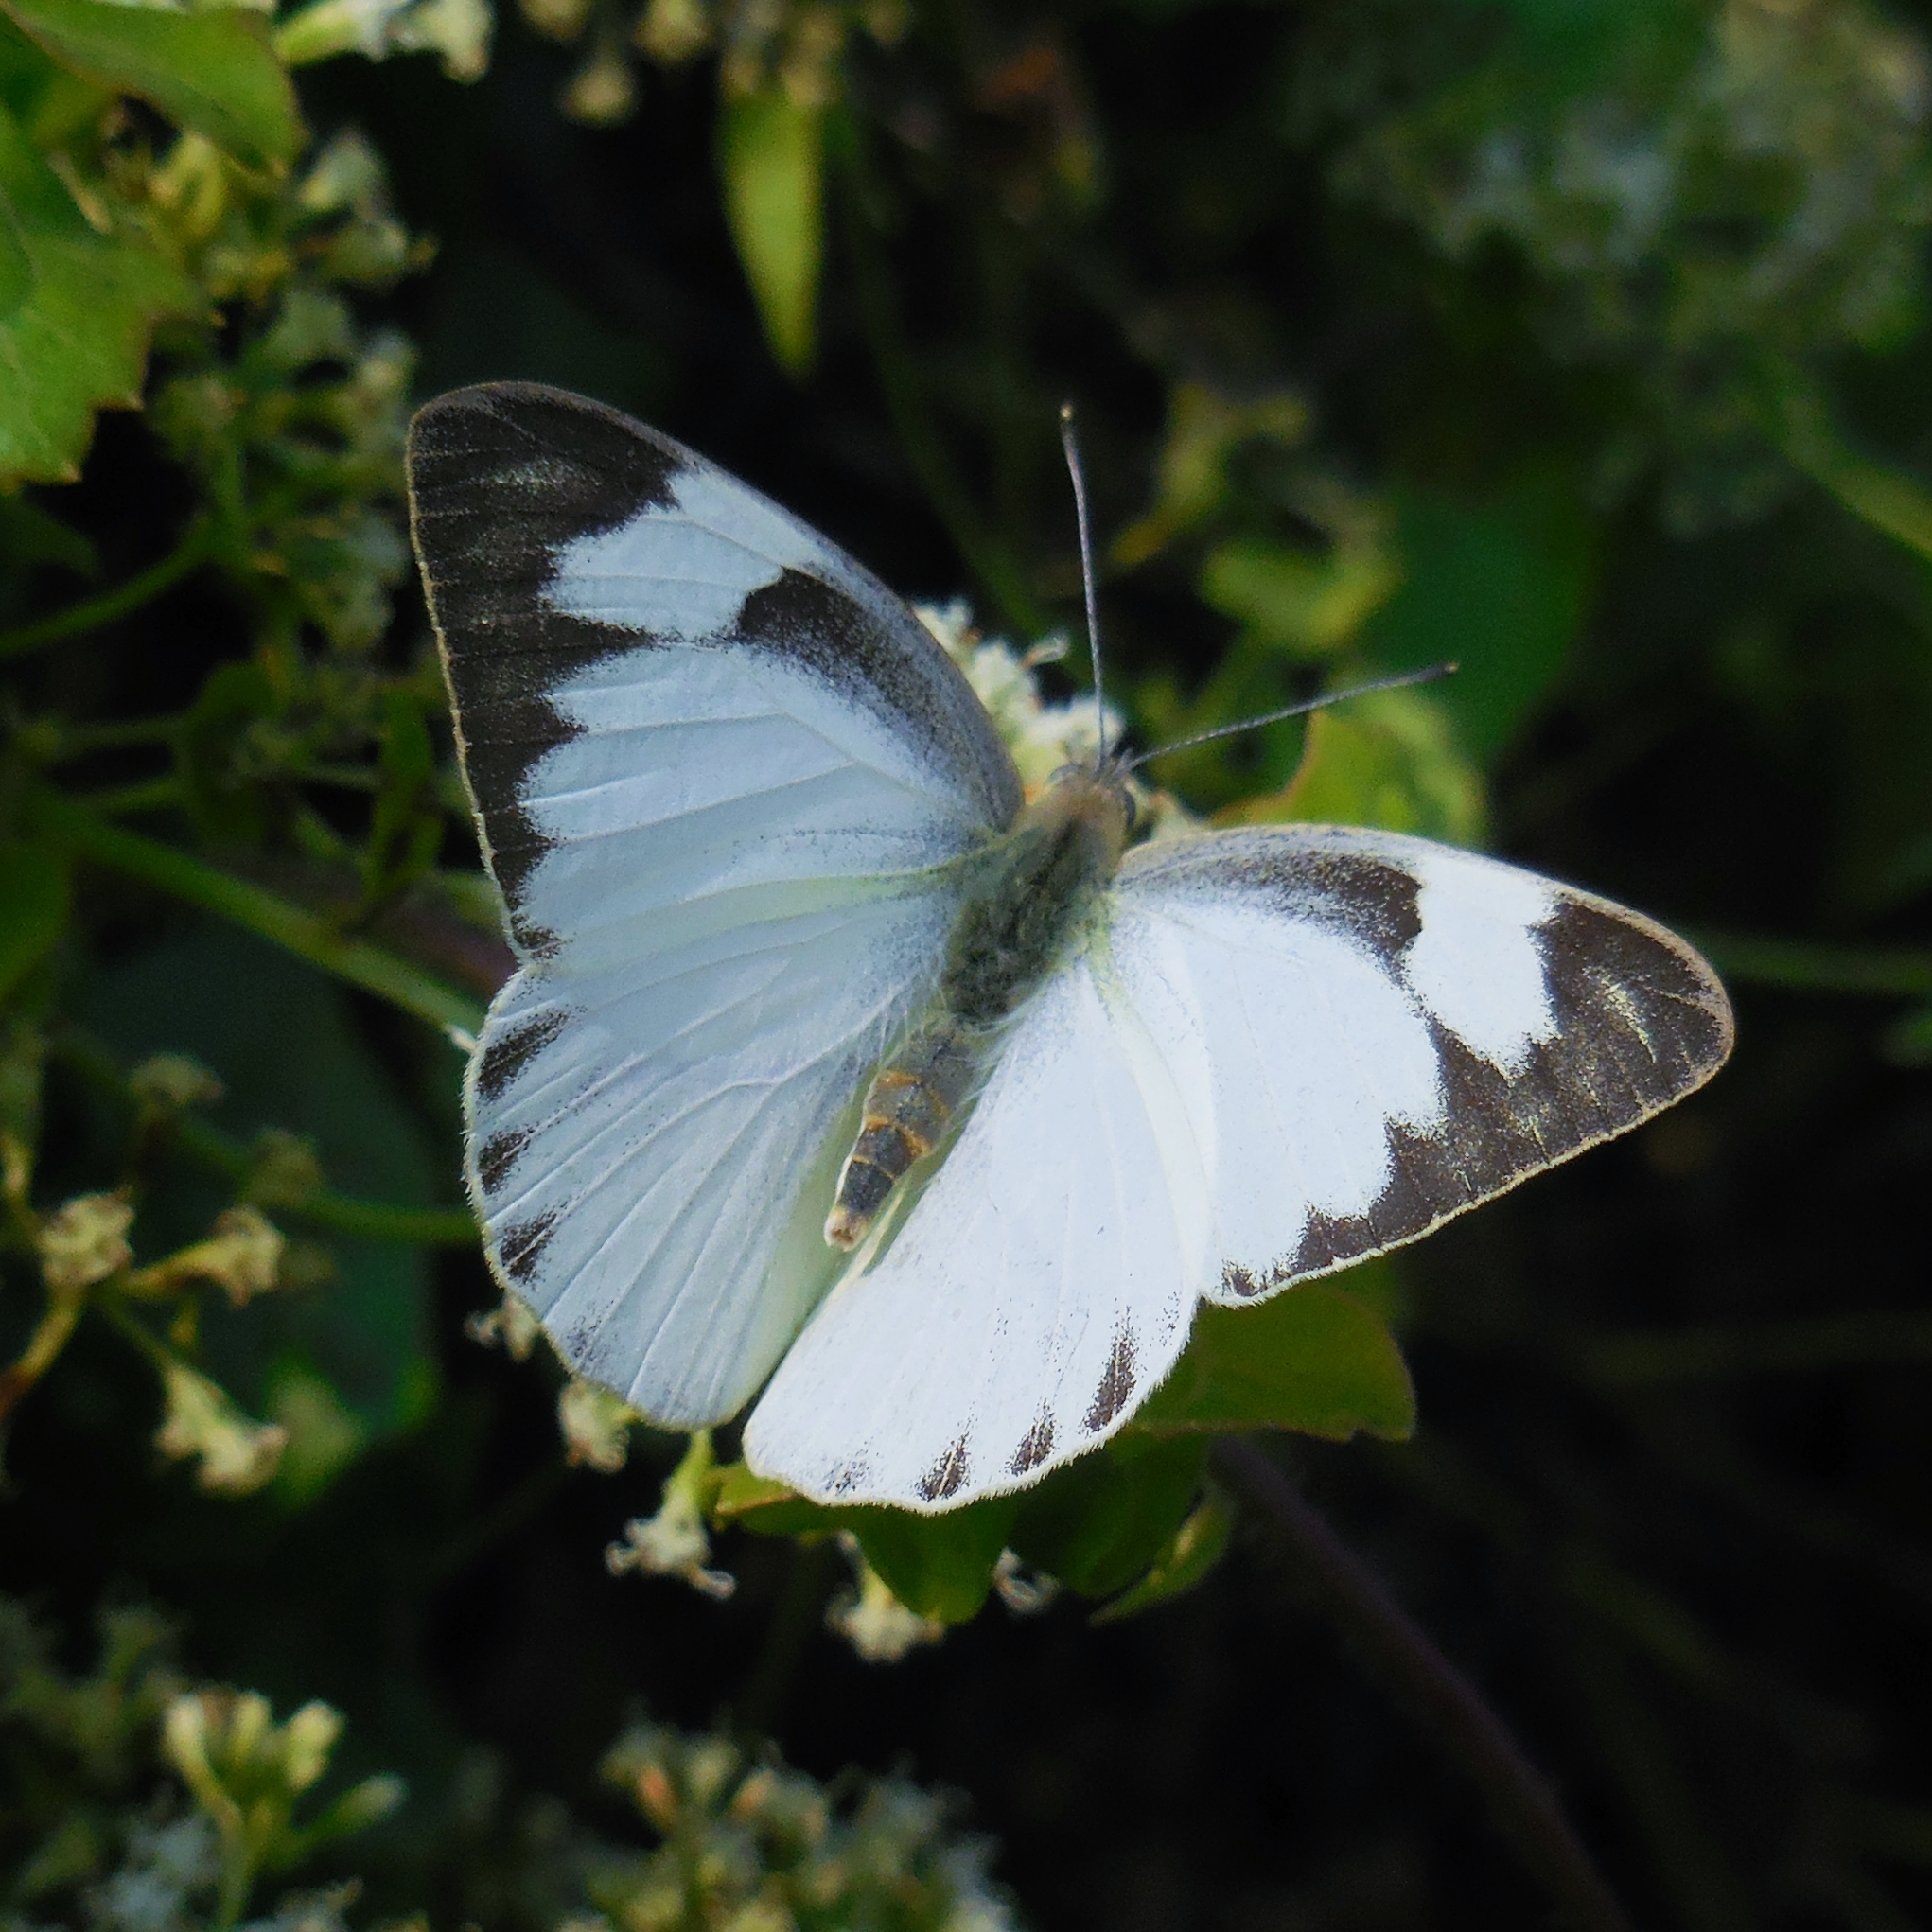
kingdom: Animalia
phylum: Arthropoda
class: Insecta
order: Lepidoptera
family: Pieridae
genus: Appias
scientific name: Appias libythea
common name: Striped albatross
